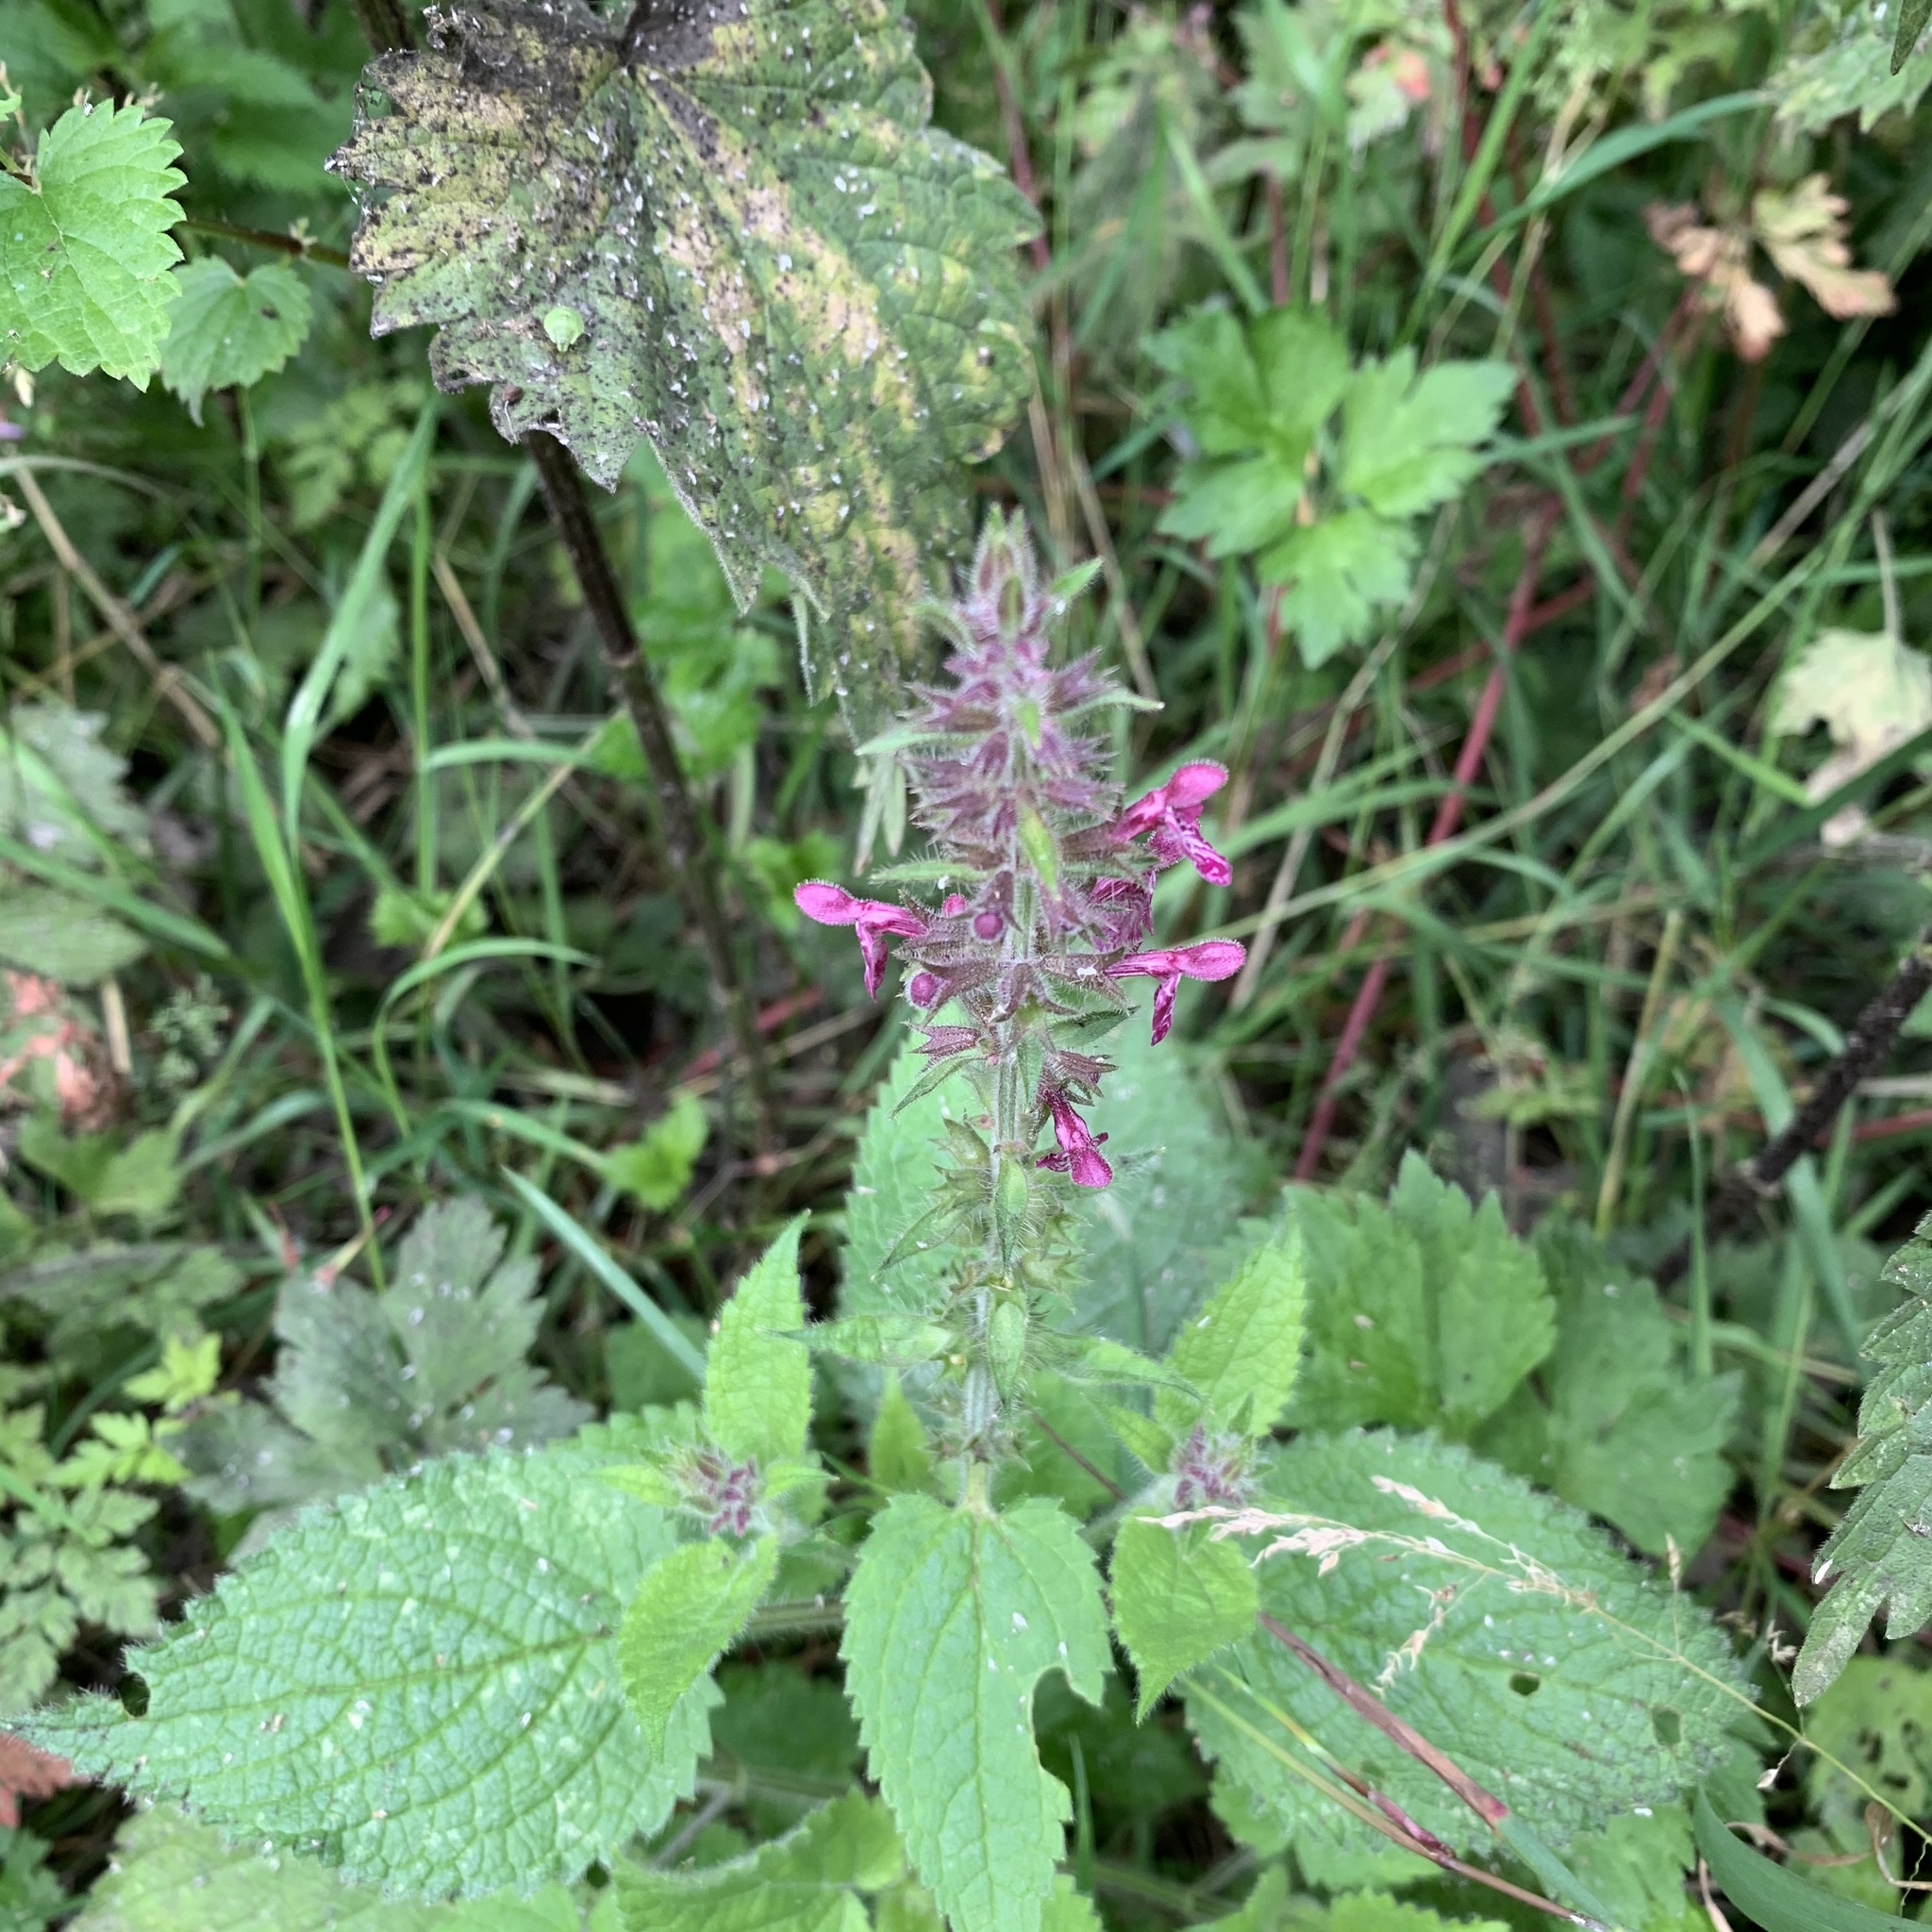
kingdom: Plantae
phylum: Tracheophyta
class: Magnoliopsida
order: Lamiales
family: Lamiaceae
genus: Stachys
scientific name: Stachys sylvatica
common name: Hedge woundwort
